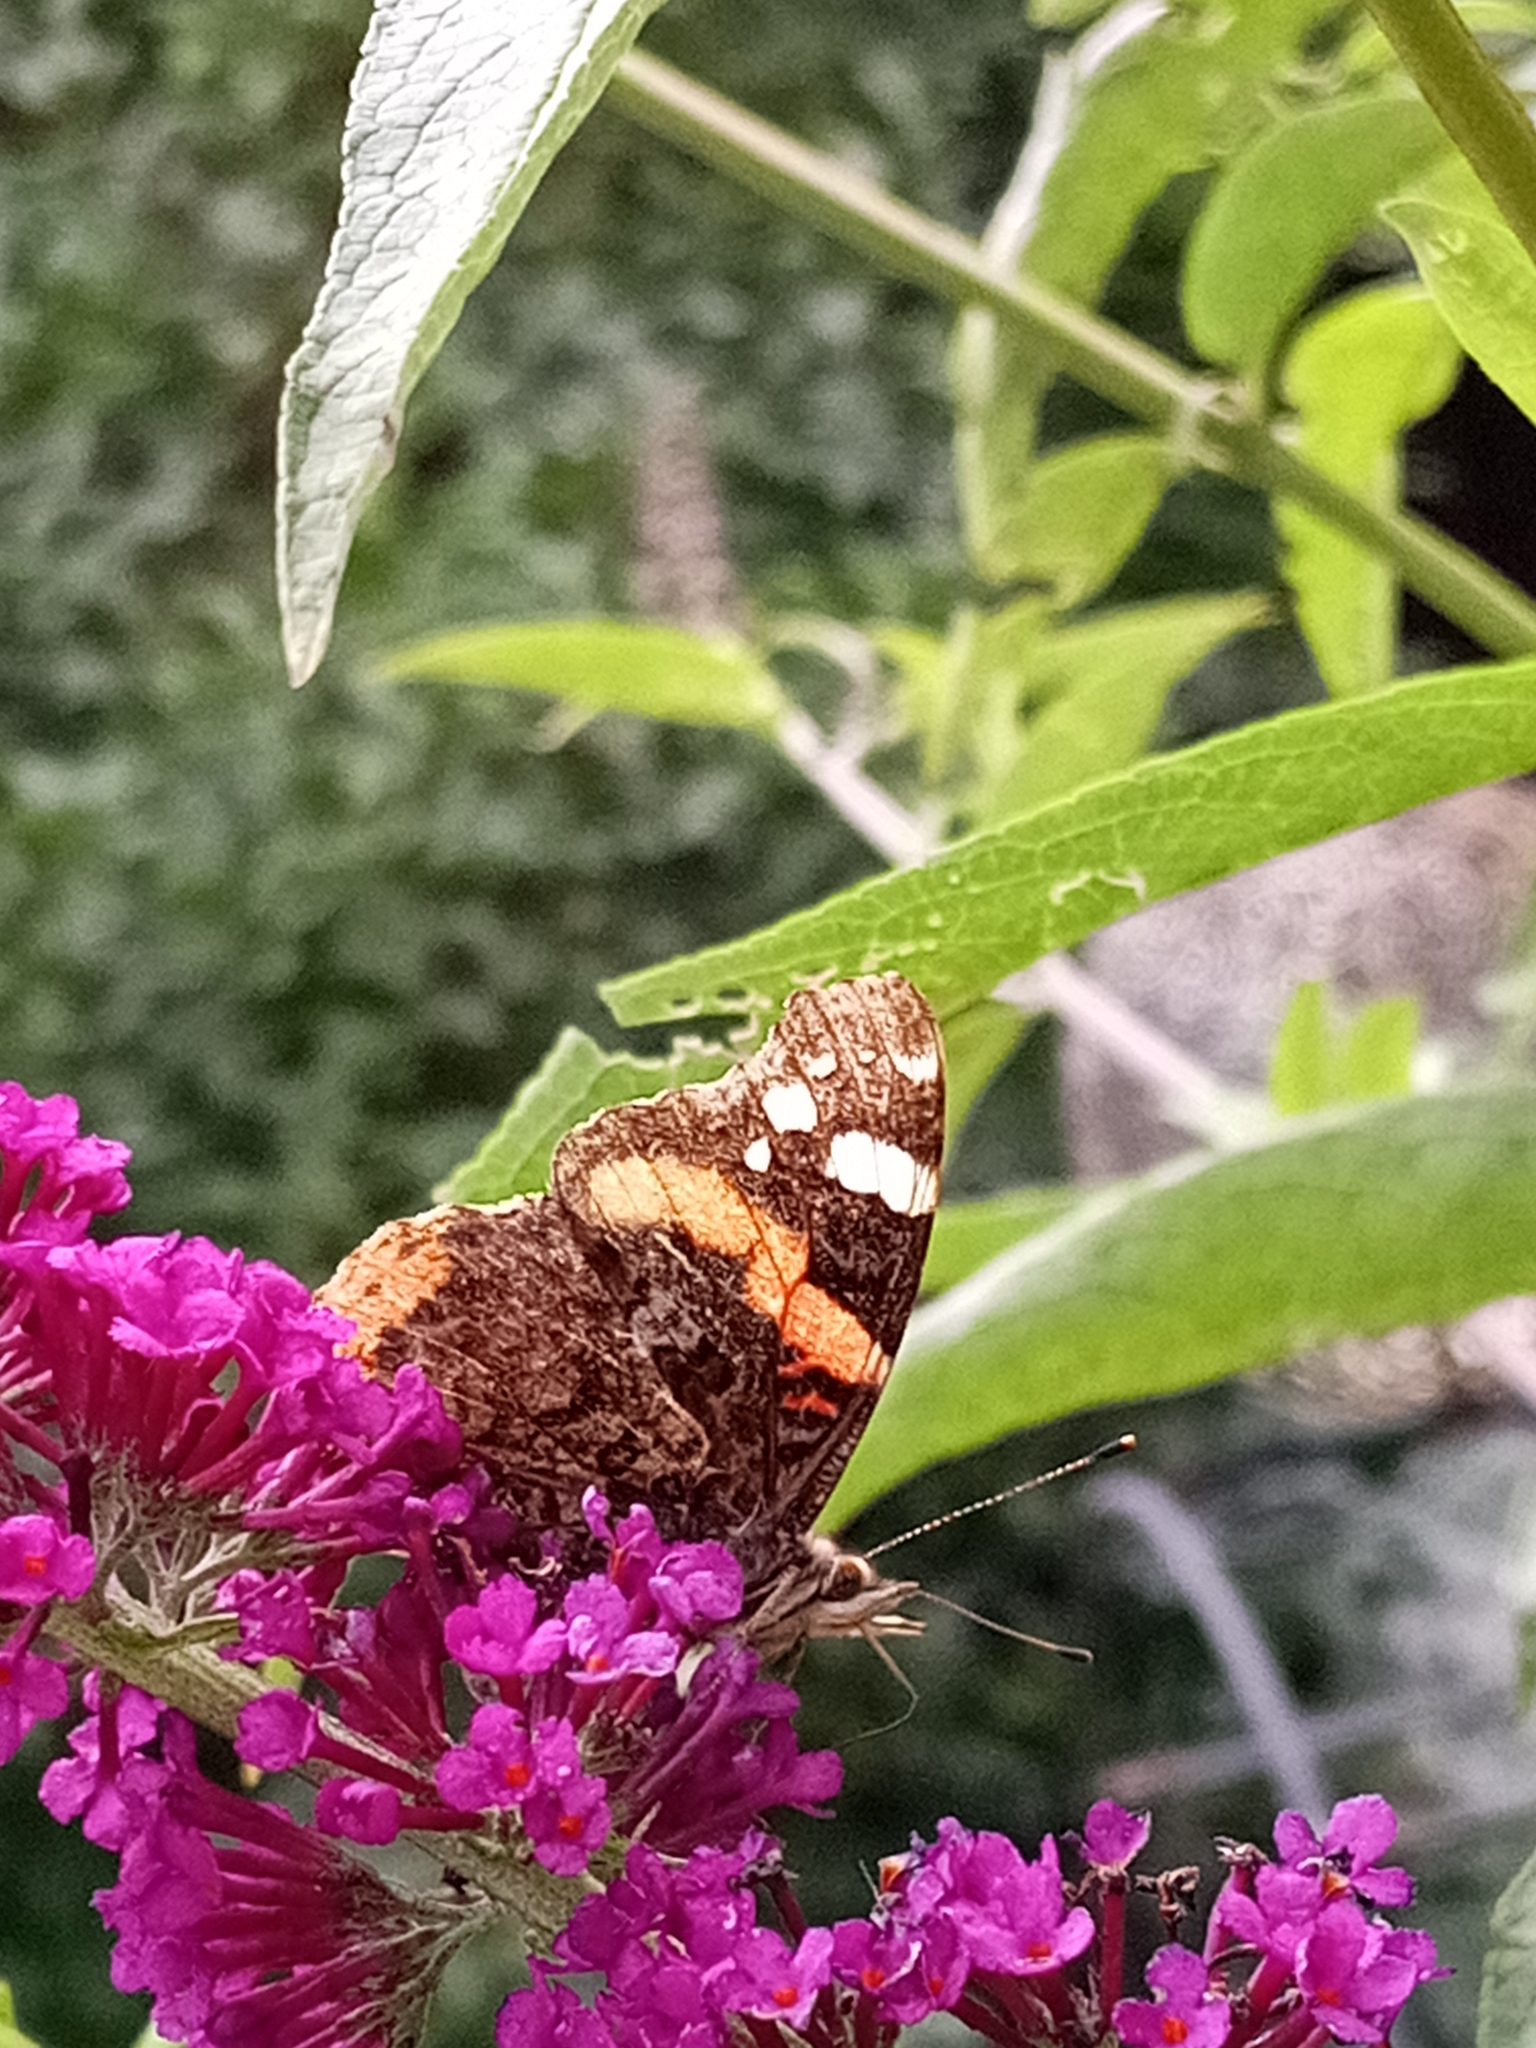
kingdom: Animalia
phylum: Arthropoda
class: Insecta
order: Lepidoptera
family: Nymphalidae
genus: Vanessa
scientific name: Vanessa atalanta
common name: Red admiral
